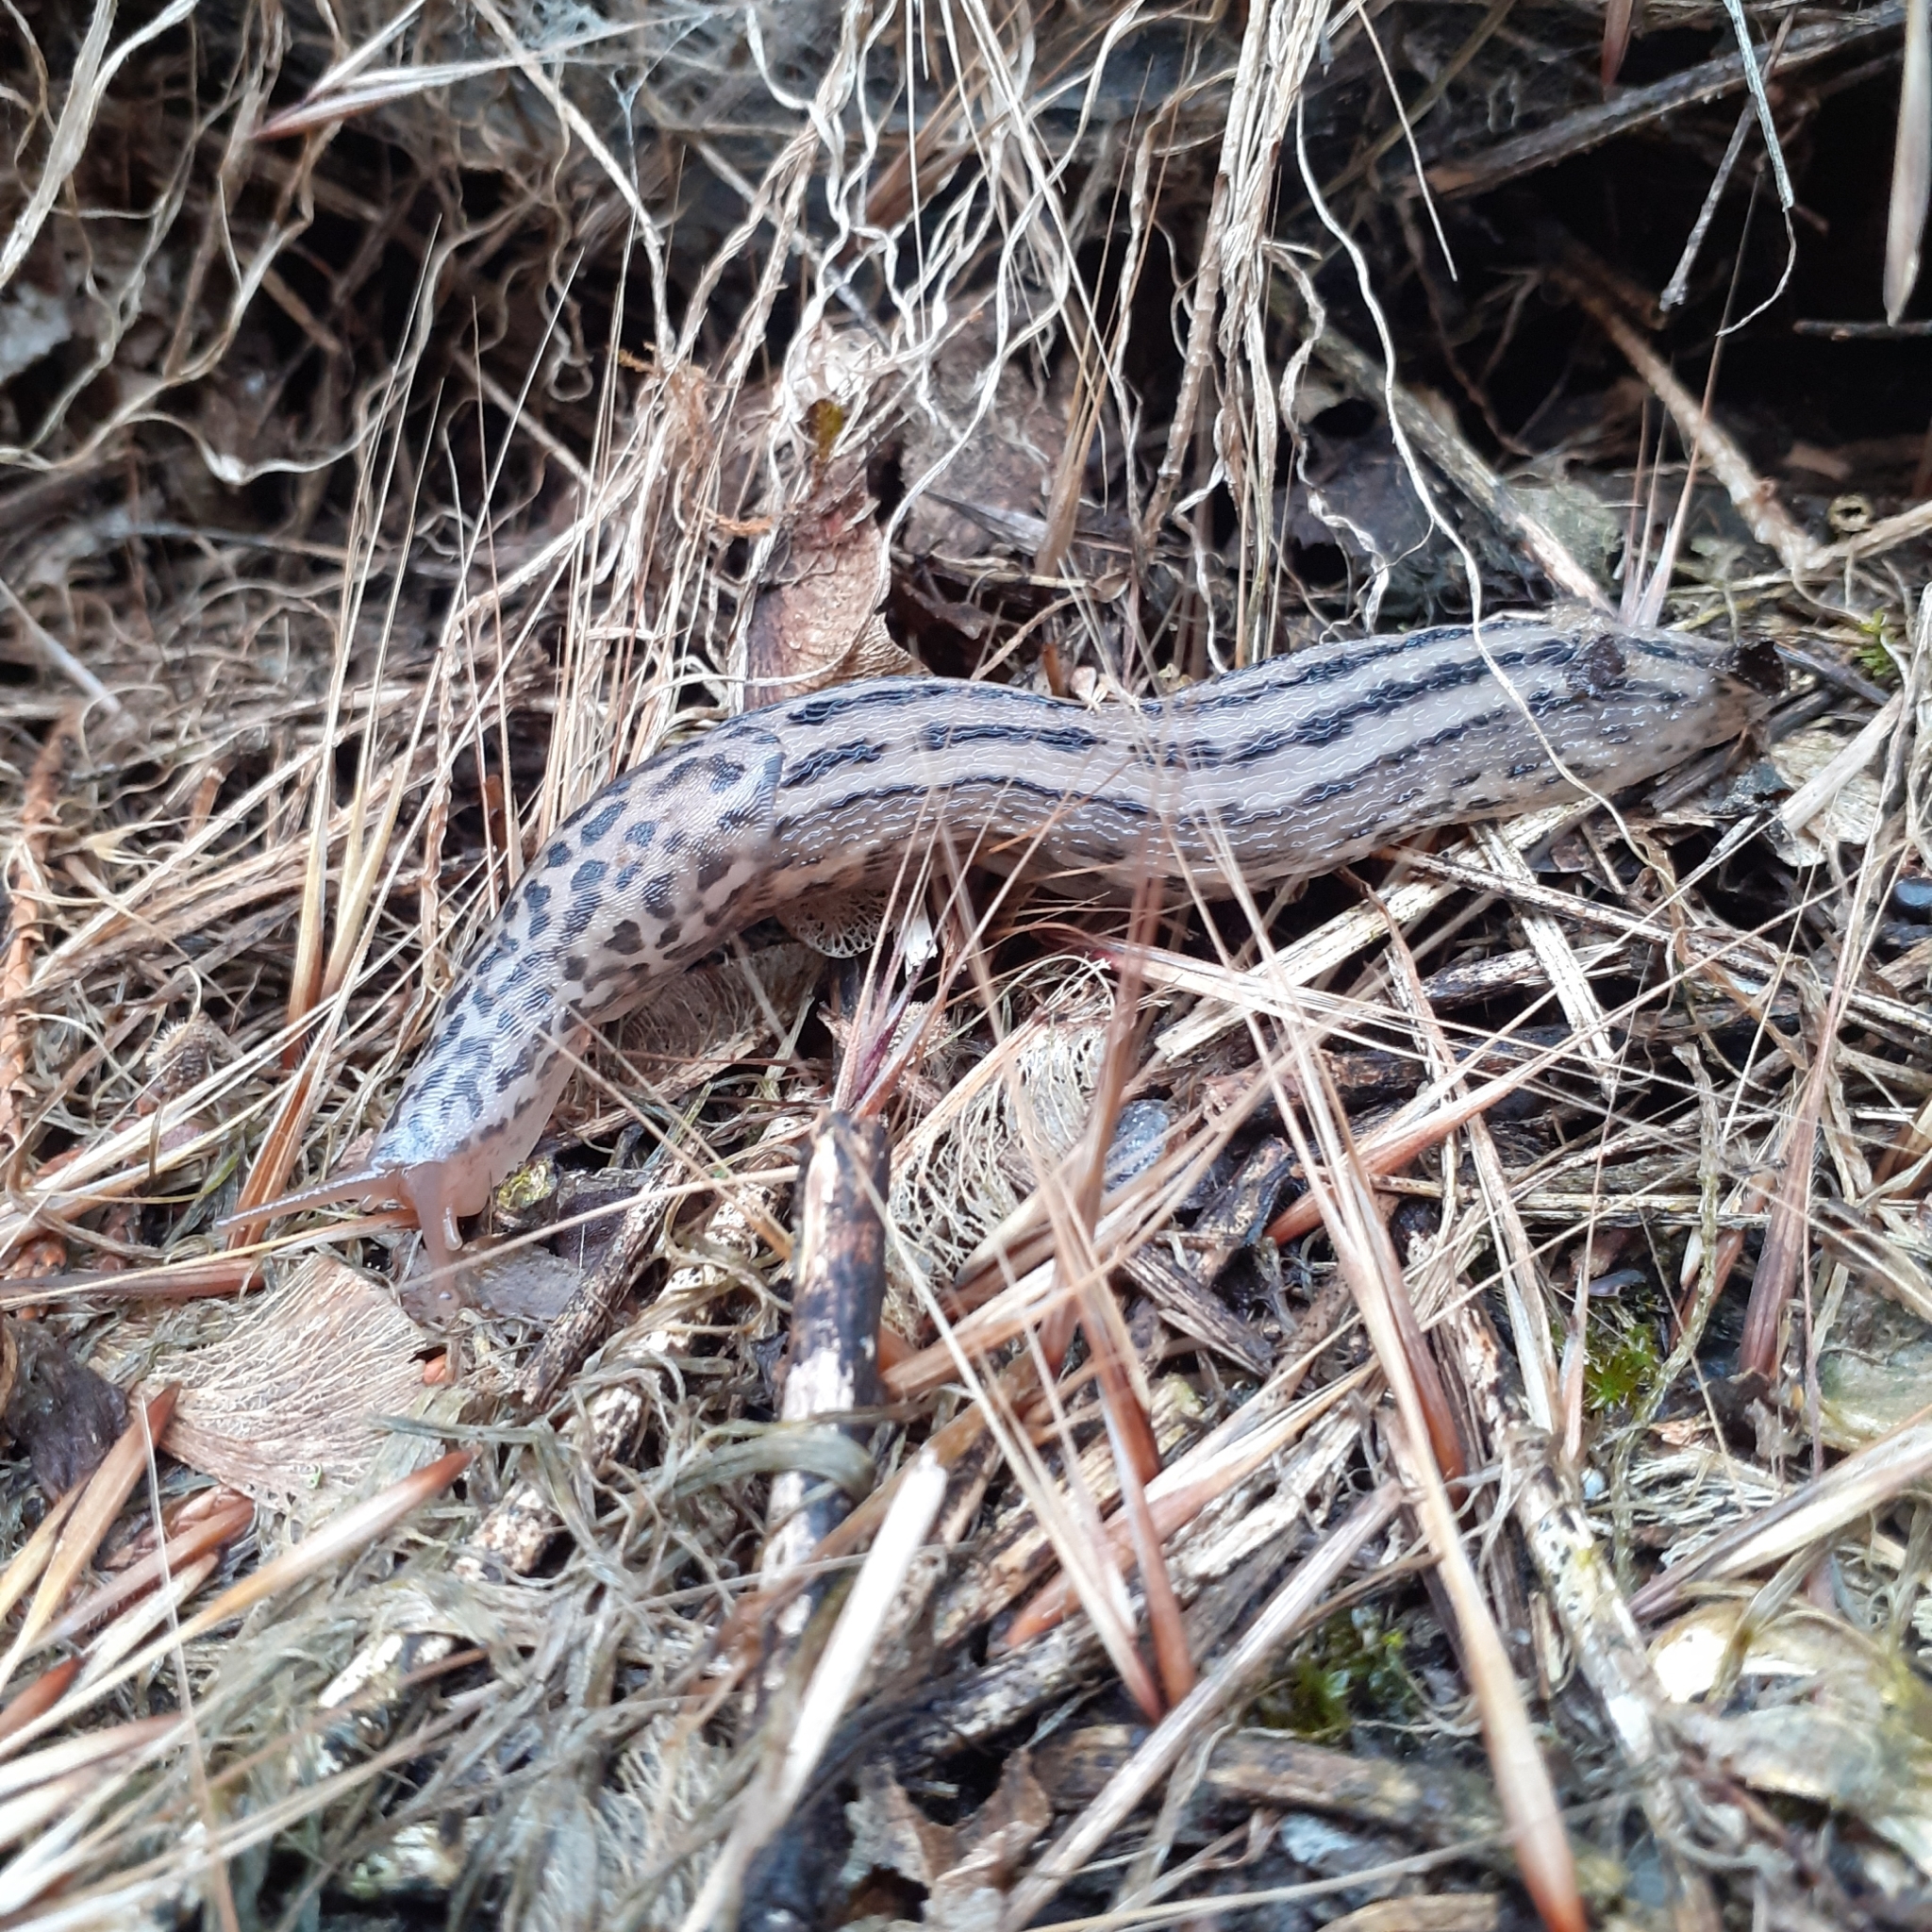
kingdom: Animalia
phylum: Mollusca
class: Gastropoda
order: Stylommatophora
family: Limacidae
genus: Limax
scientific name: Limax maximus
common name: Great grey slug
